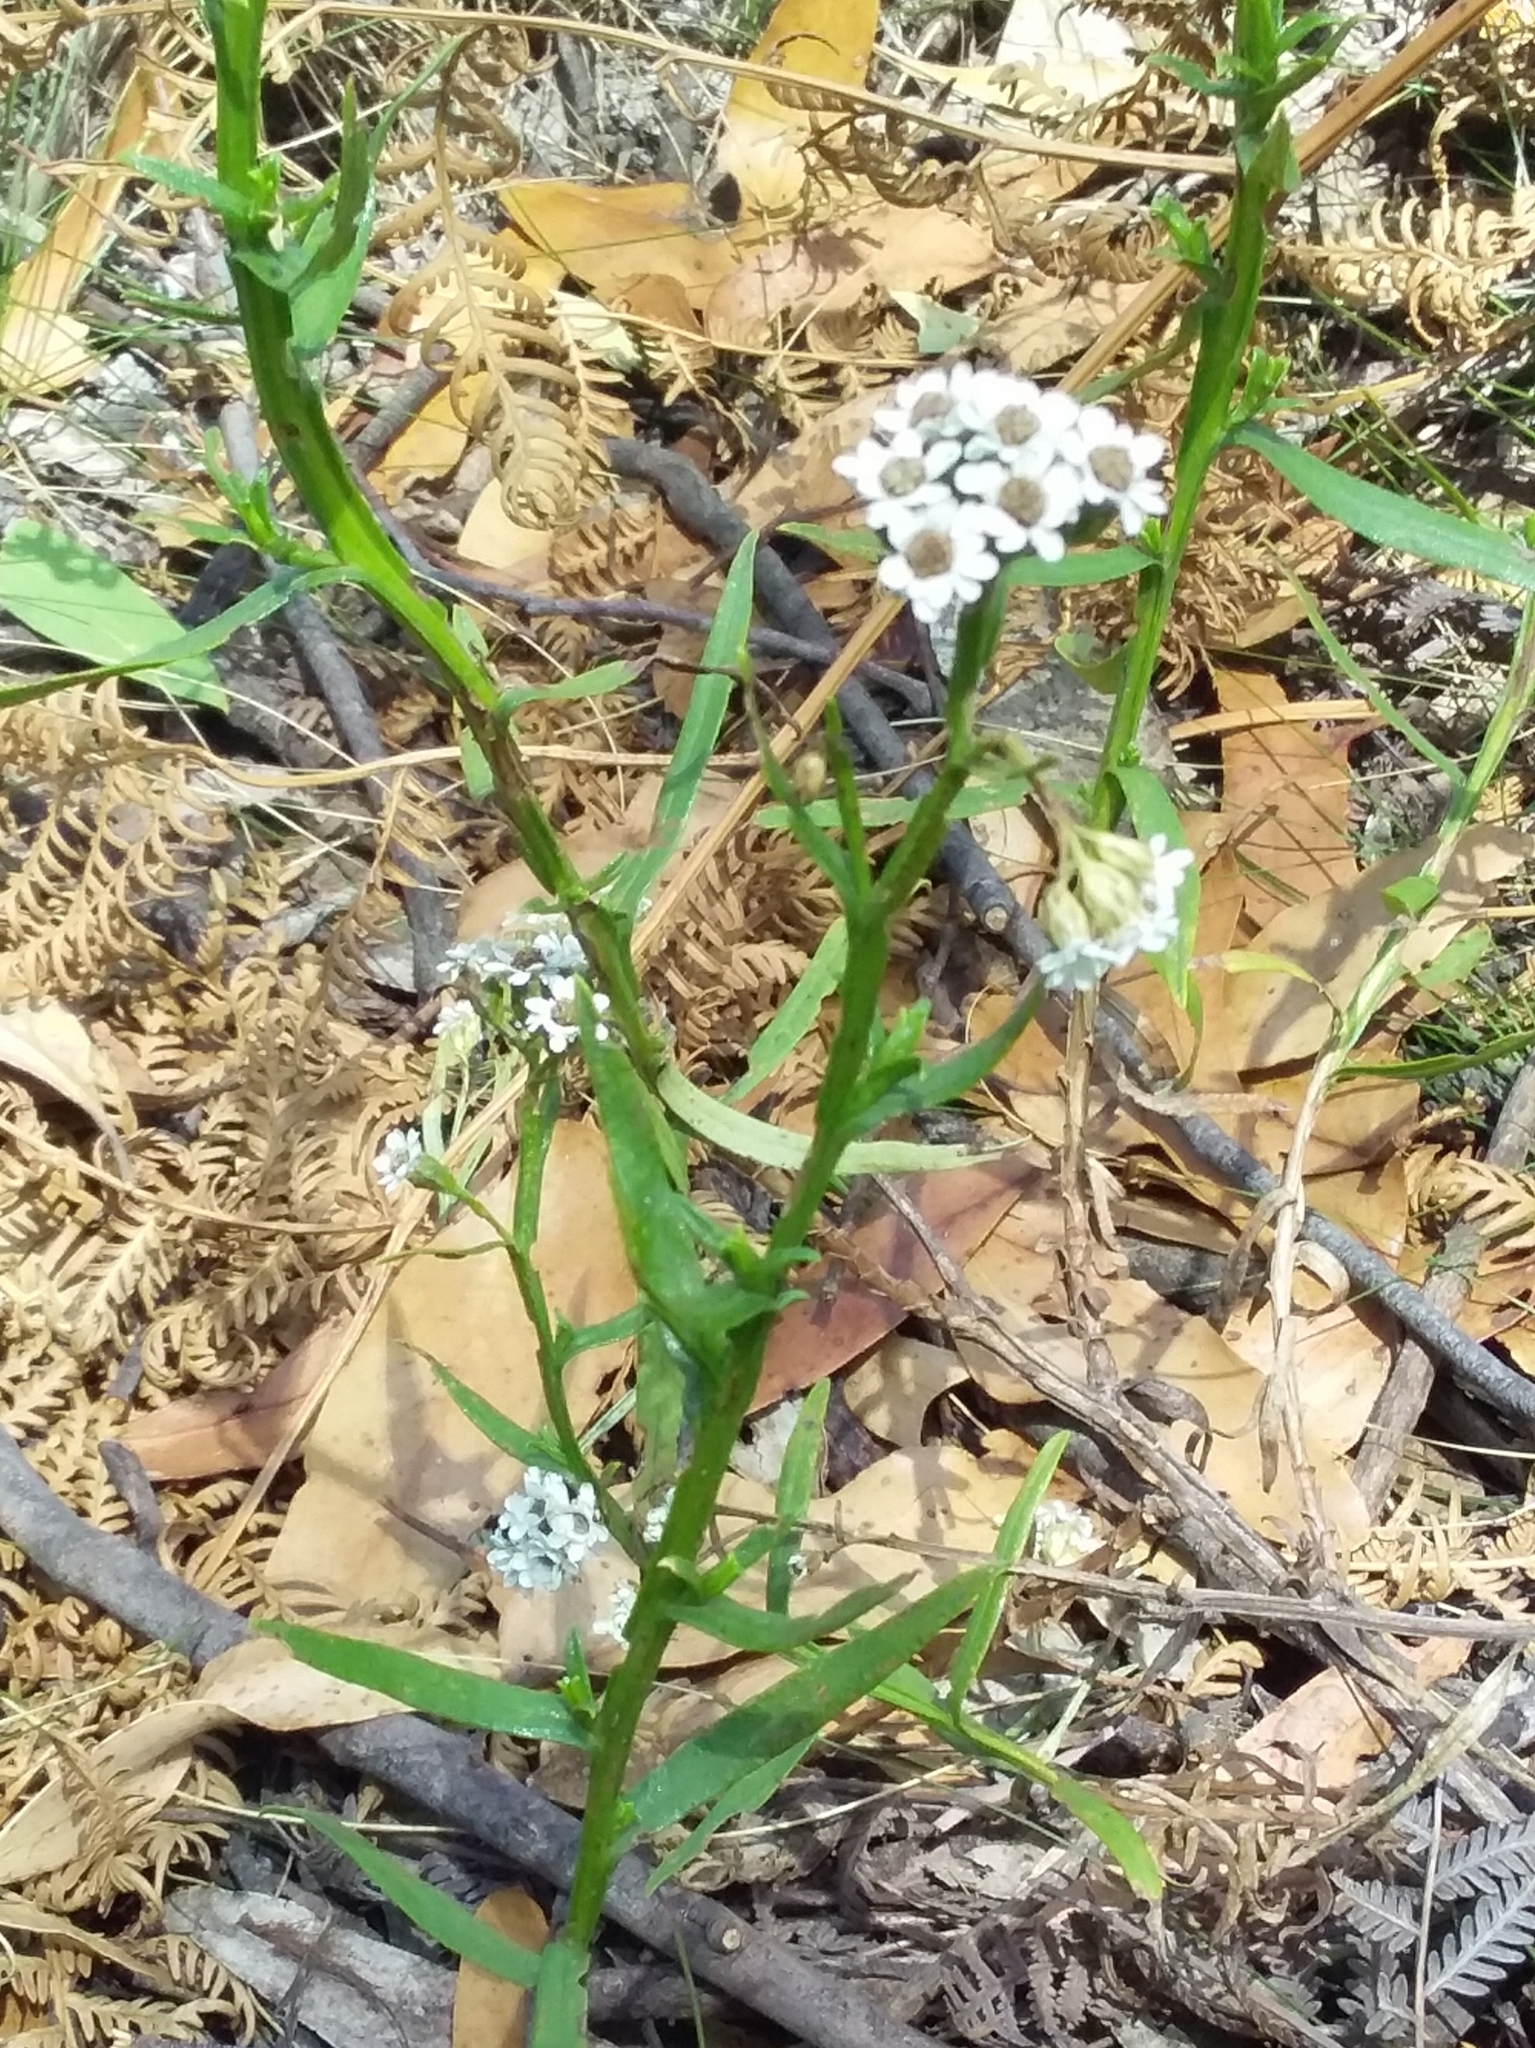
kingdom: Plantae
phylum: Tracheophyta
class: Magnoliopsida
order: Asterales
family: Asteraceae
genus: Ixodia
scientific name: Ixodia achillaeoides
